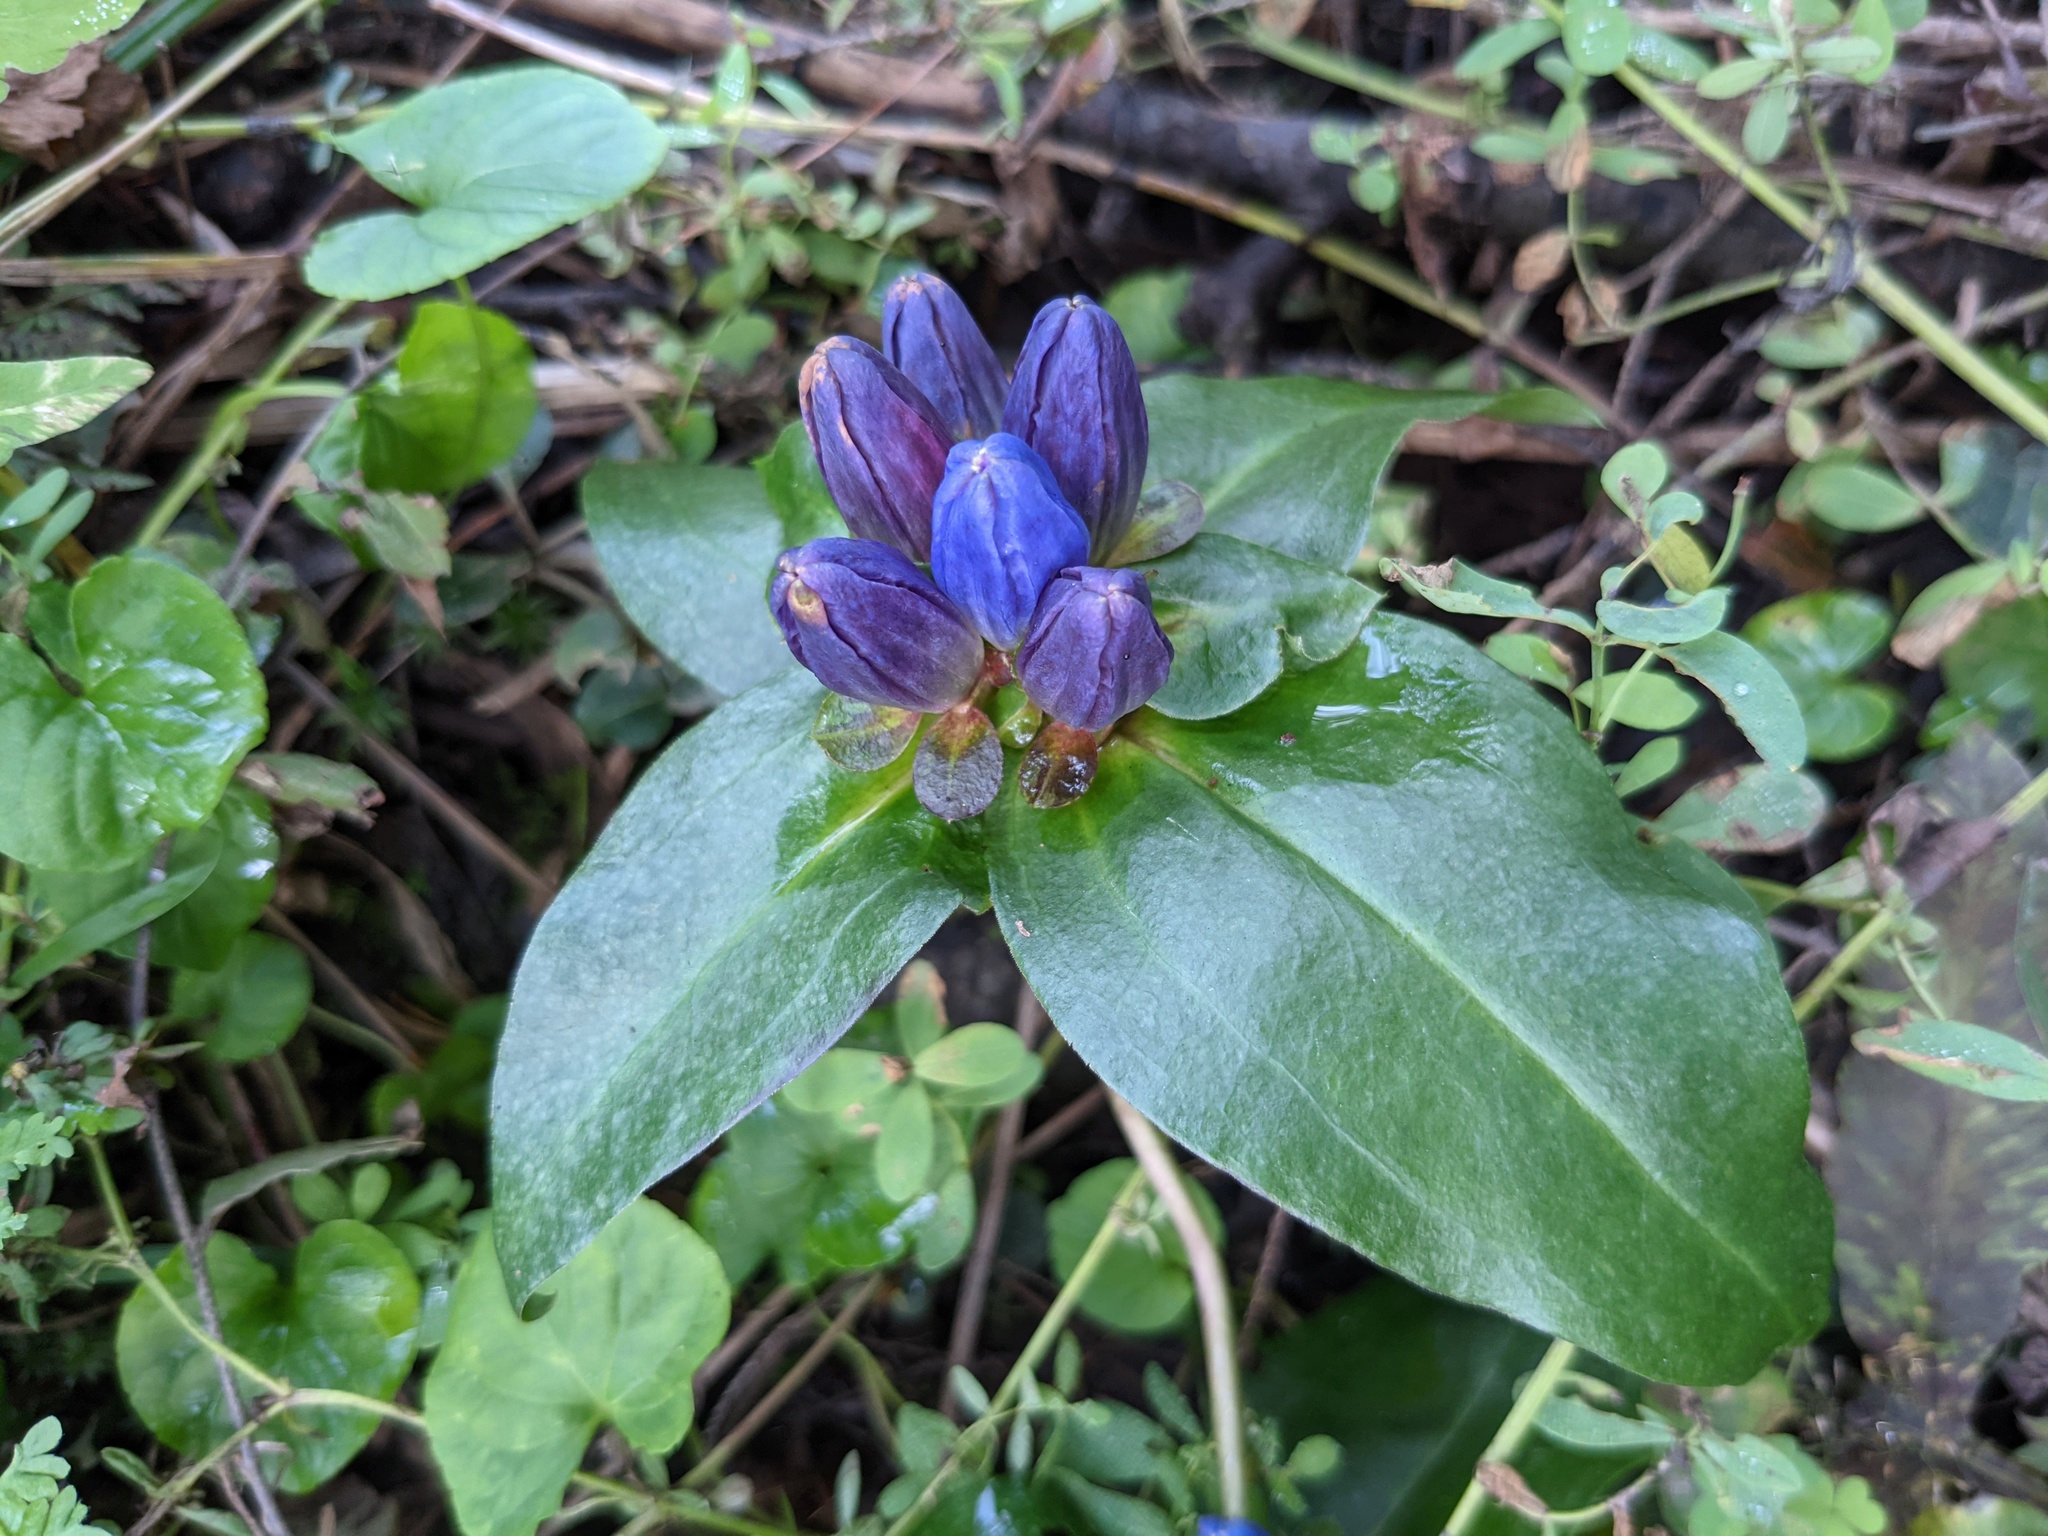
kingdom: Plantae
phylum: Tracheophyta
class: Magnoliopsida
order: Gentianales
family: Gentianaceae
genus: Gentiana
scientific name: Gentiana clausa
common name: Blind gentian
